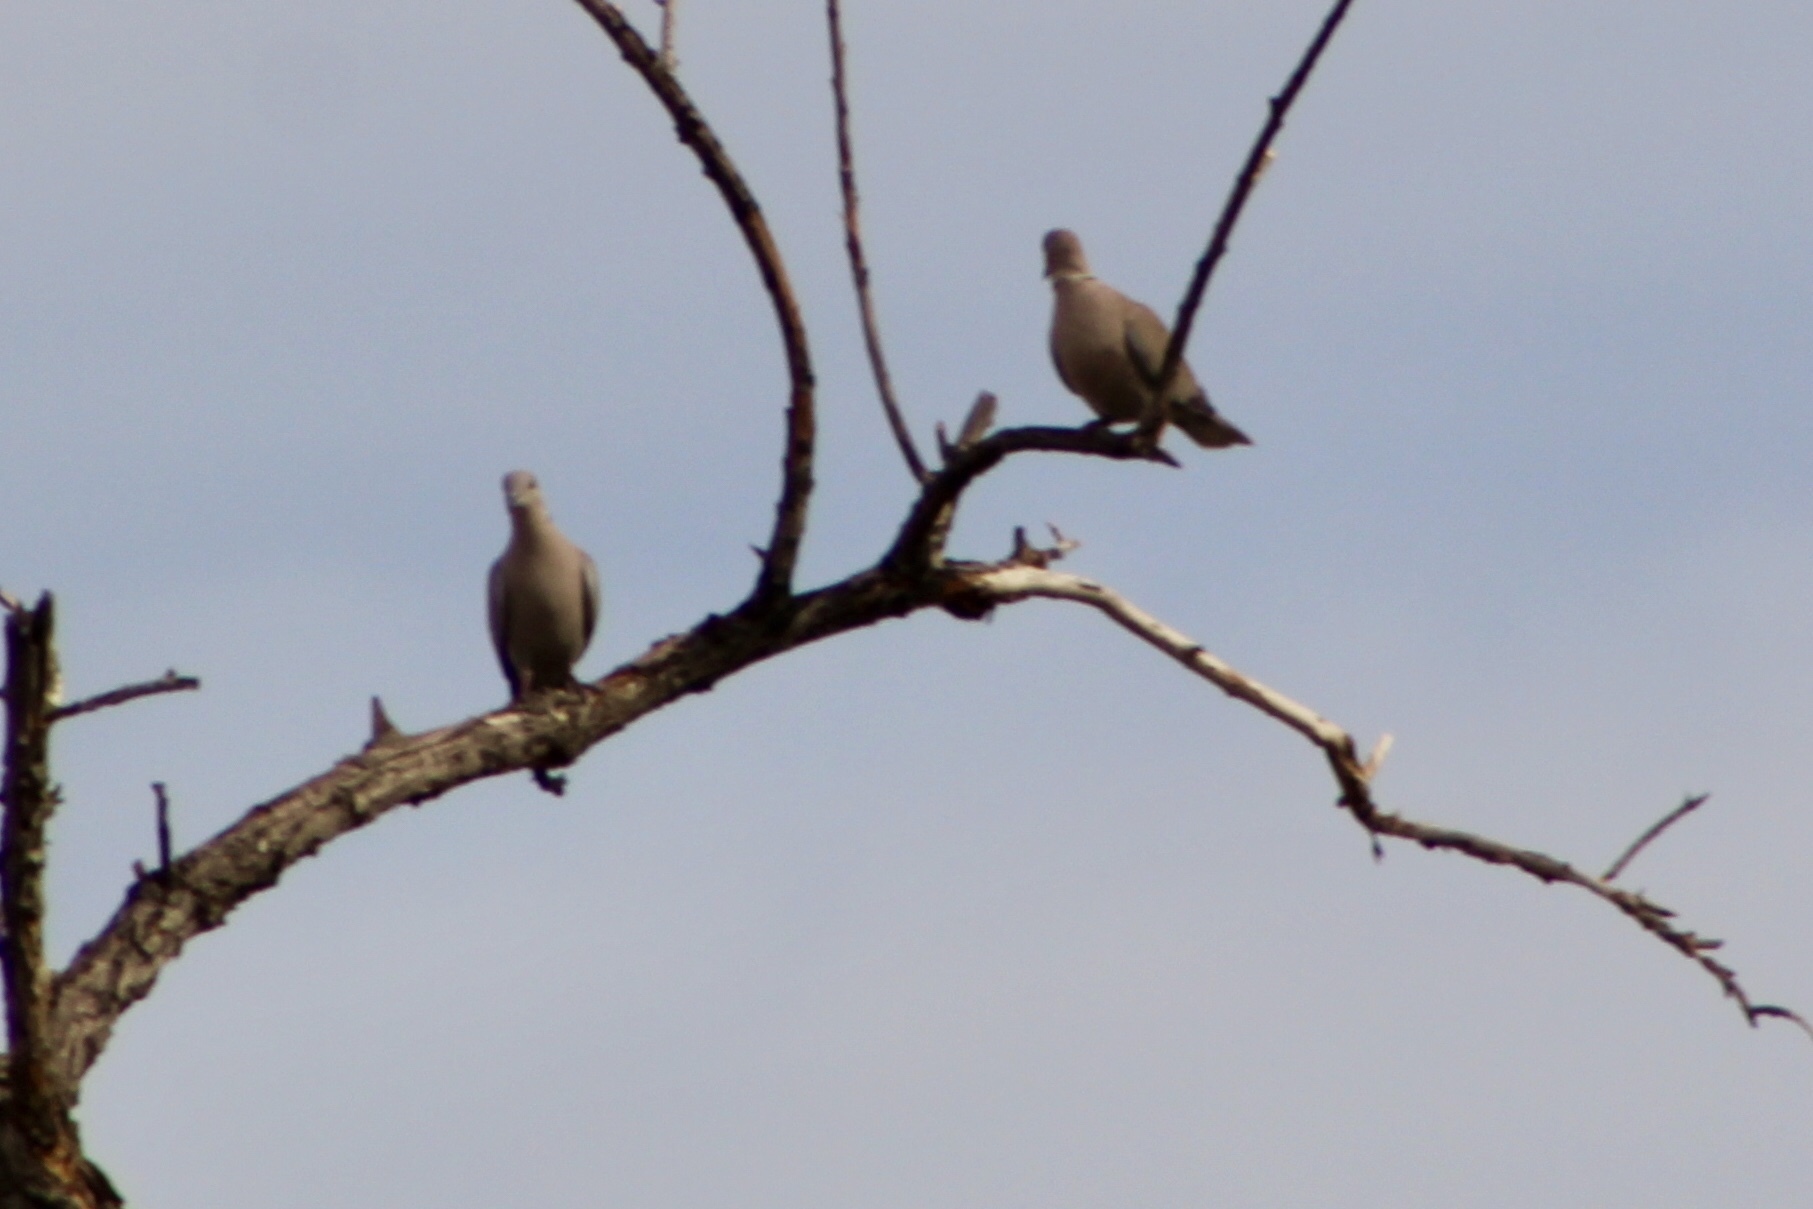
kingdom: Animalia
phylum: Chordata
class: Aves
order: Columbiformes
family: Columbidae
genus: Streptopelia
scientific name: Streptopelia decaocto
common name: Eurasian collared dove
